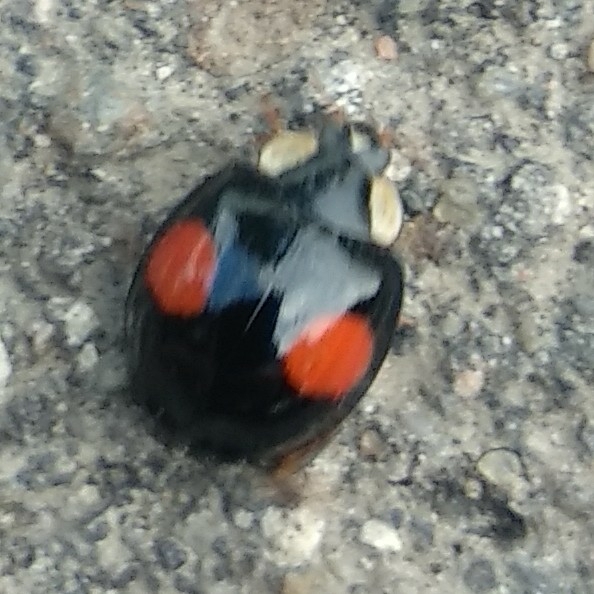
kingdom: Animalia
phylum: Arthropoda
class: Insecta
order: Coleoptera
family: Coccinellidae
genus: Harmonia
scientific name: Harmonia axyridis
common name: Harlequin ladybird
